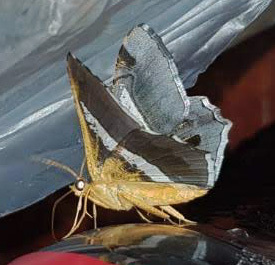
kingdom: Animalia
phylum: Arthropoda
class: Insecta
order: Lepidoptera
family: Geometridae
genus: Chiasmia
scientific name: Chiasmia nora
